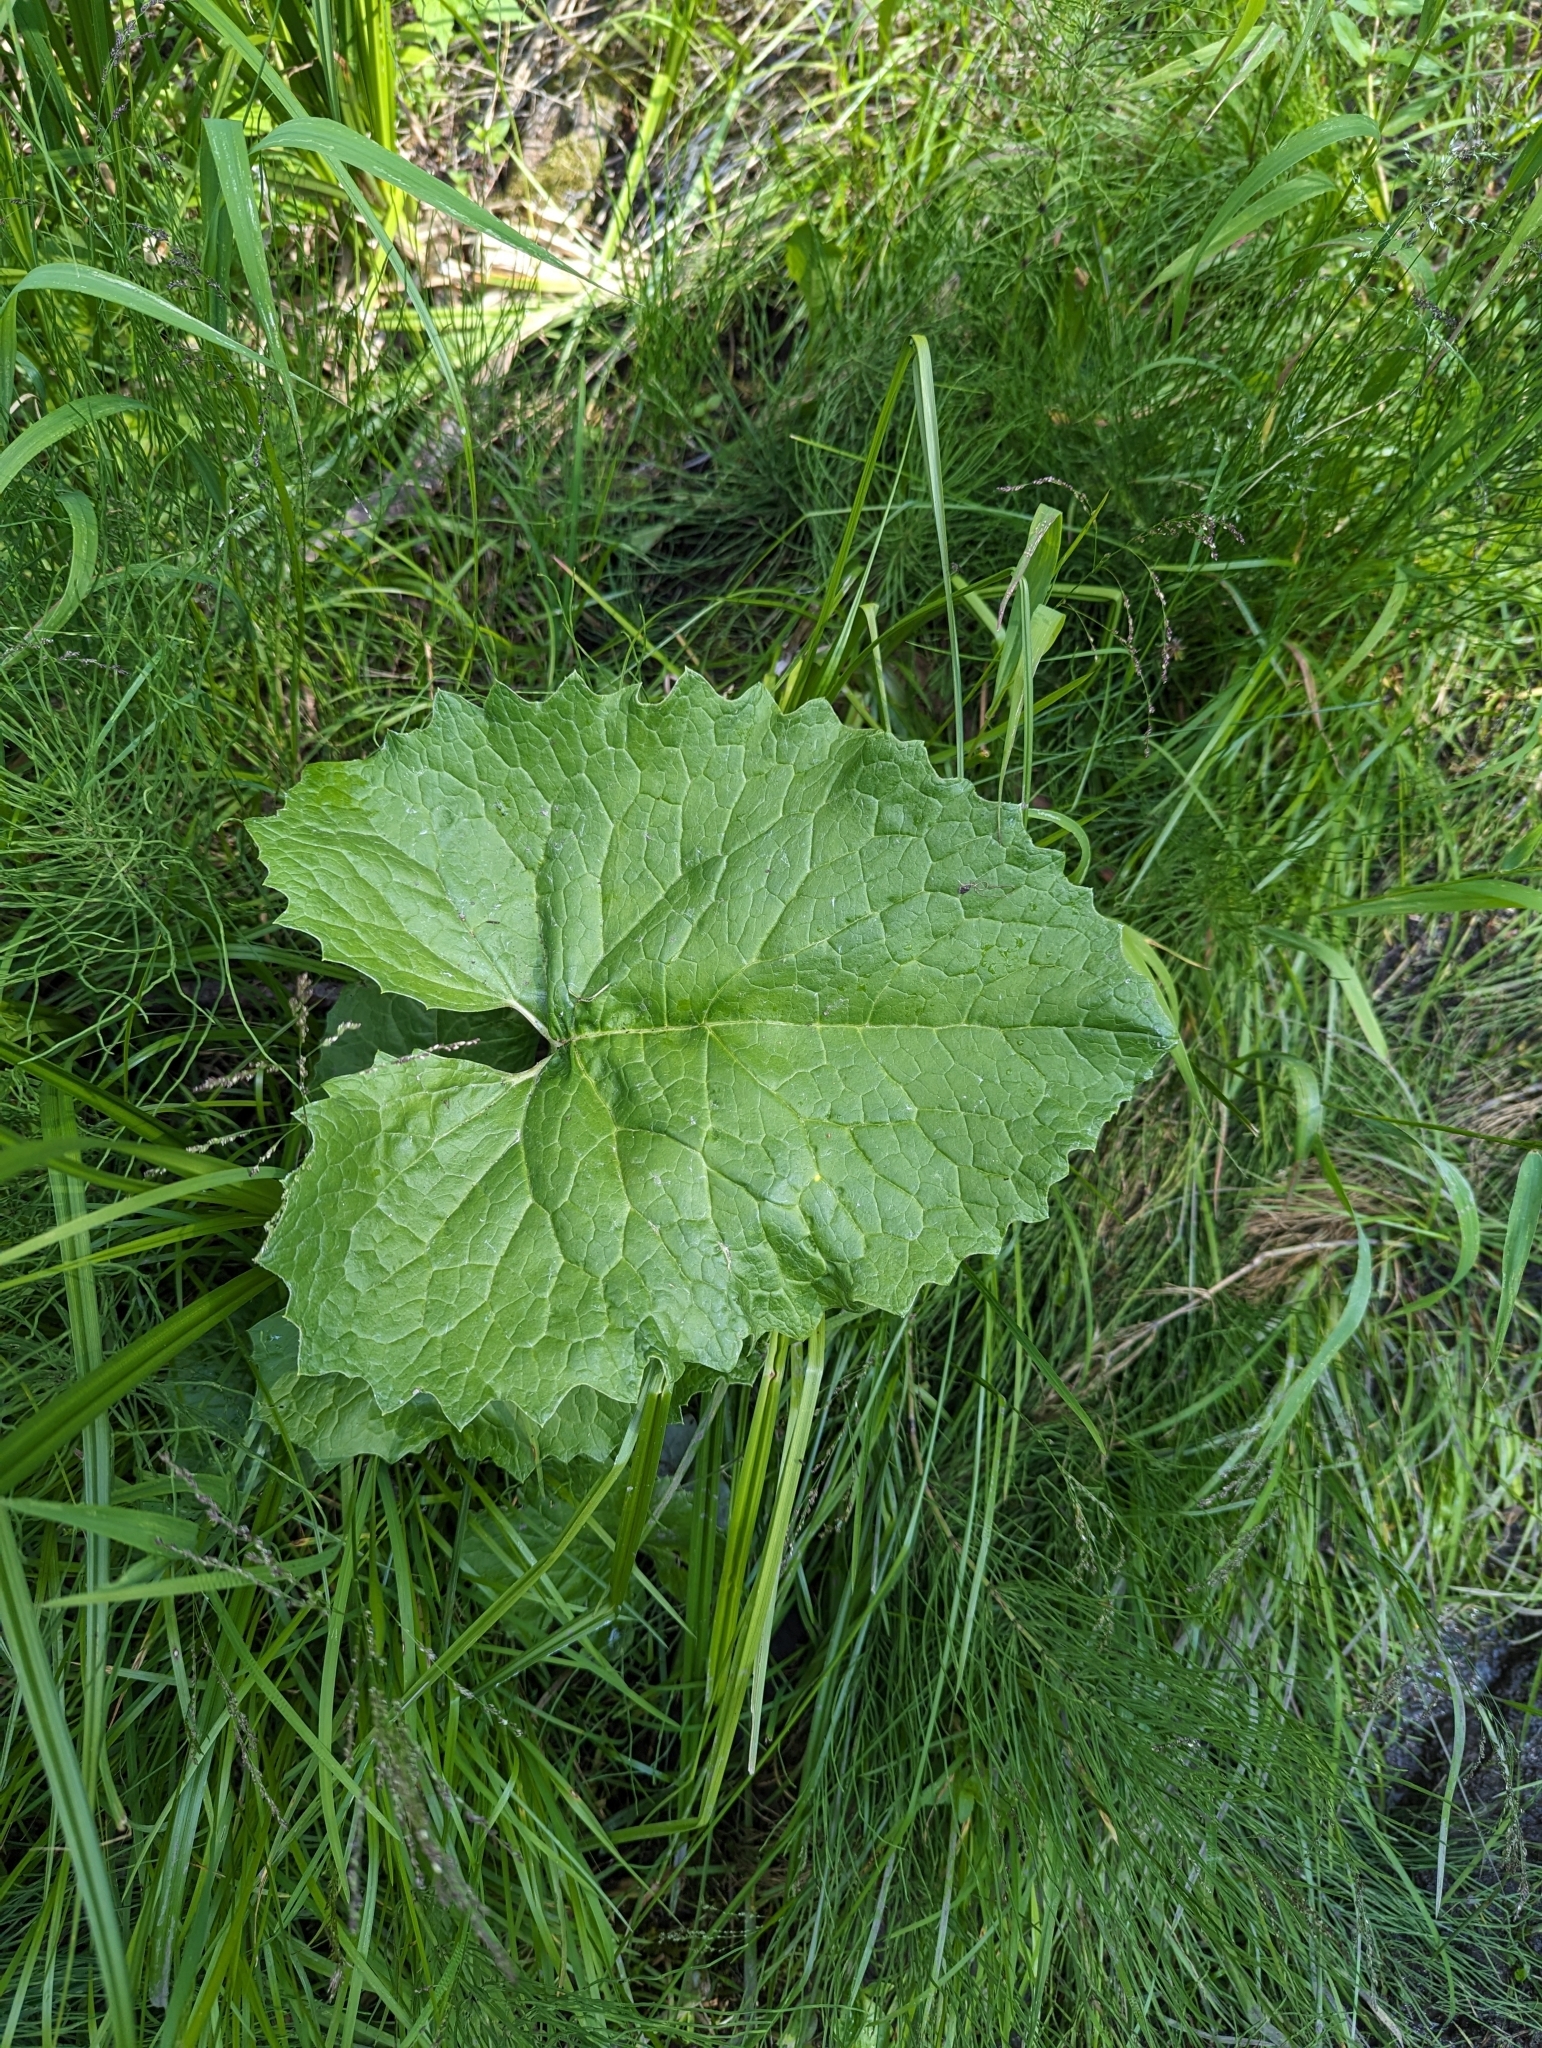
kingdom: Plantae
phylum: Tracheophyta
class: Magnoliopsida
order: Asterales
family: Asteraceae
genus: Petasites
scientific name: Petasites frigidus
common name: Arctic butterbur
